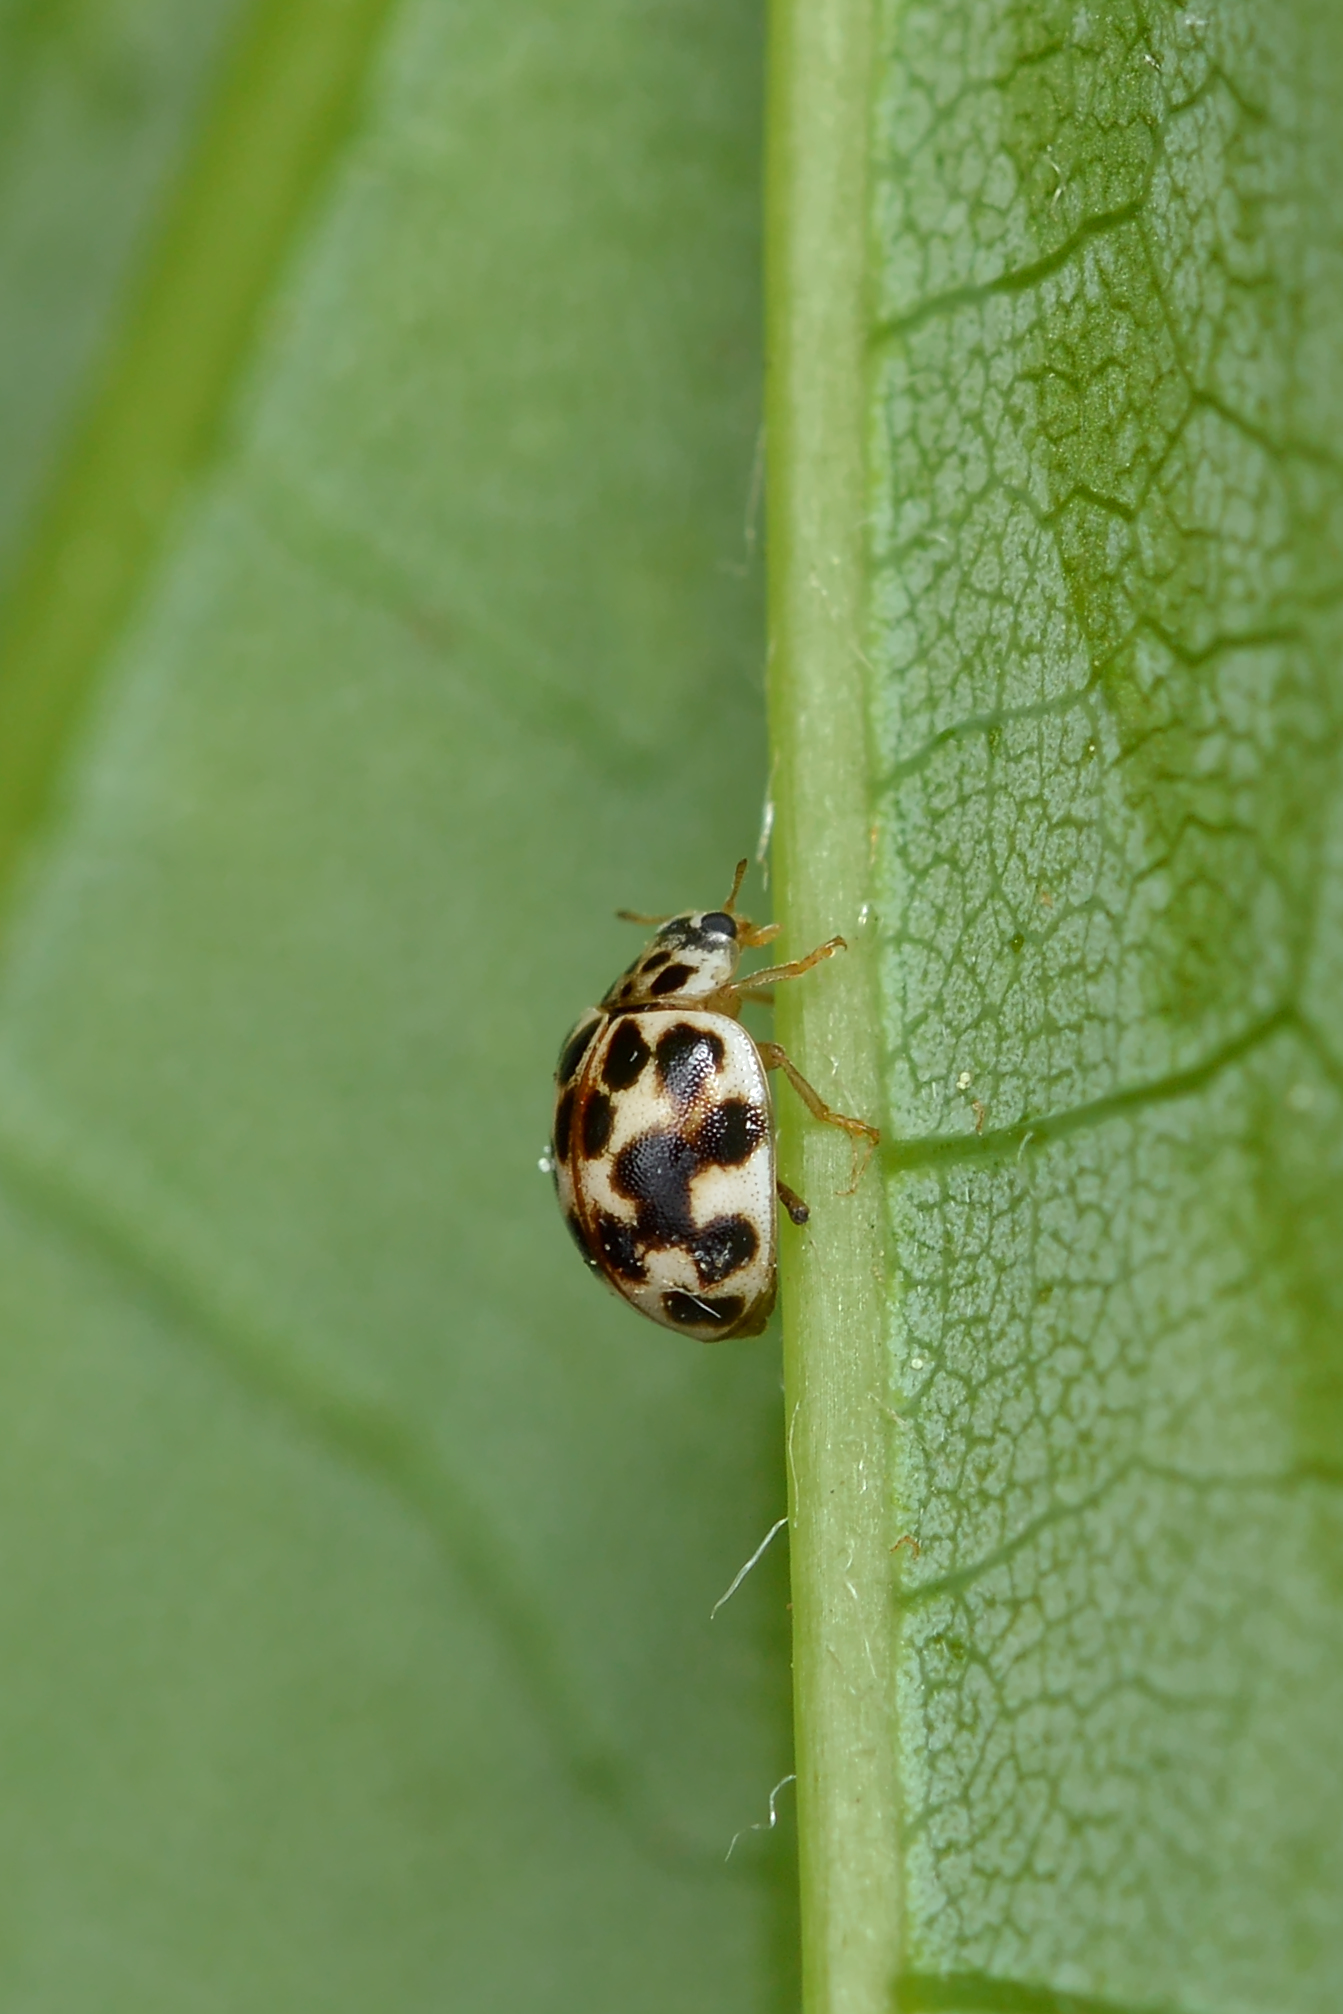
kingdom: Animalia
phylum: Arthropoda
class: Insecta
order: Coleoptera
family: Coccinellidae
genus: Psyllobora
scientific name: Psyllobora vigintimaculata
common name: Ladybird beetle
